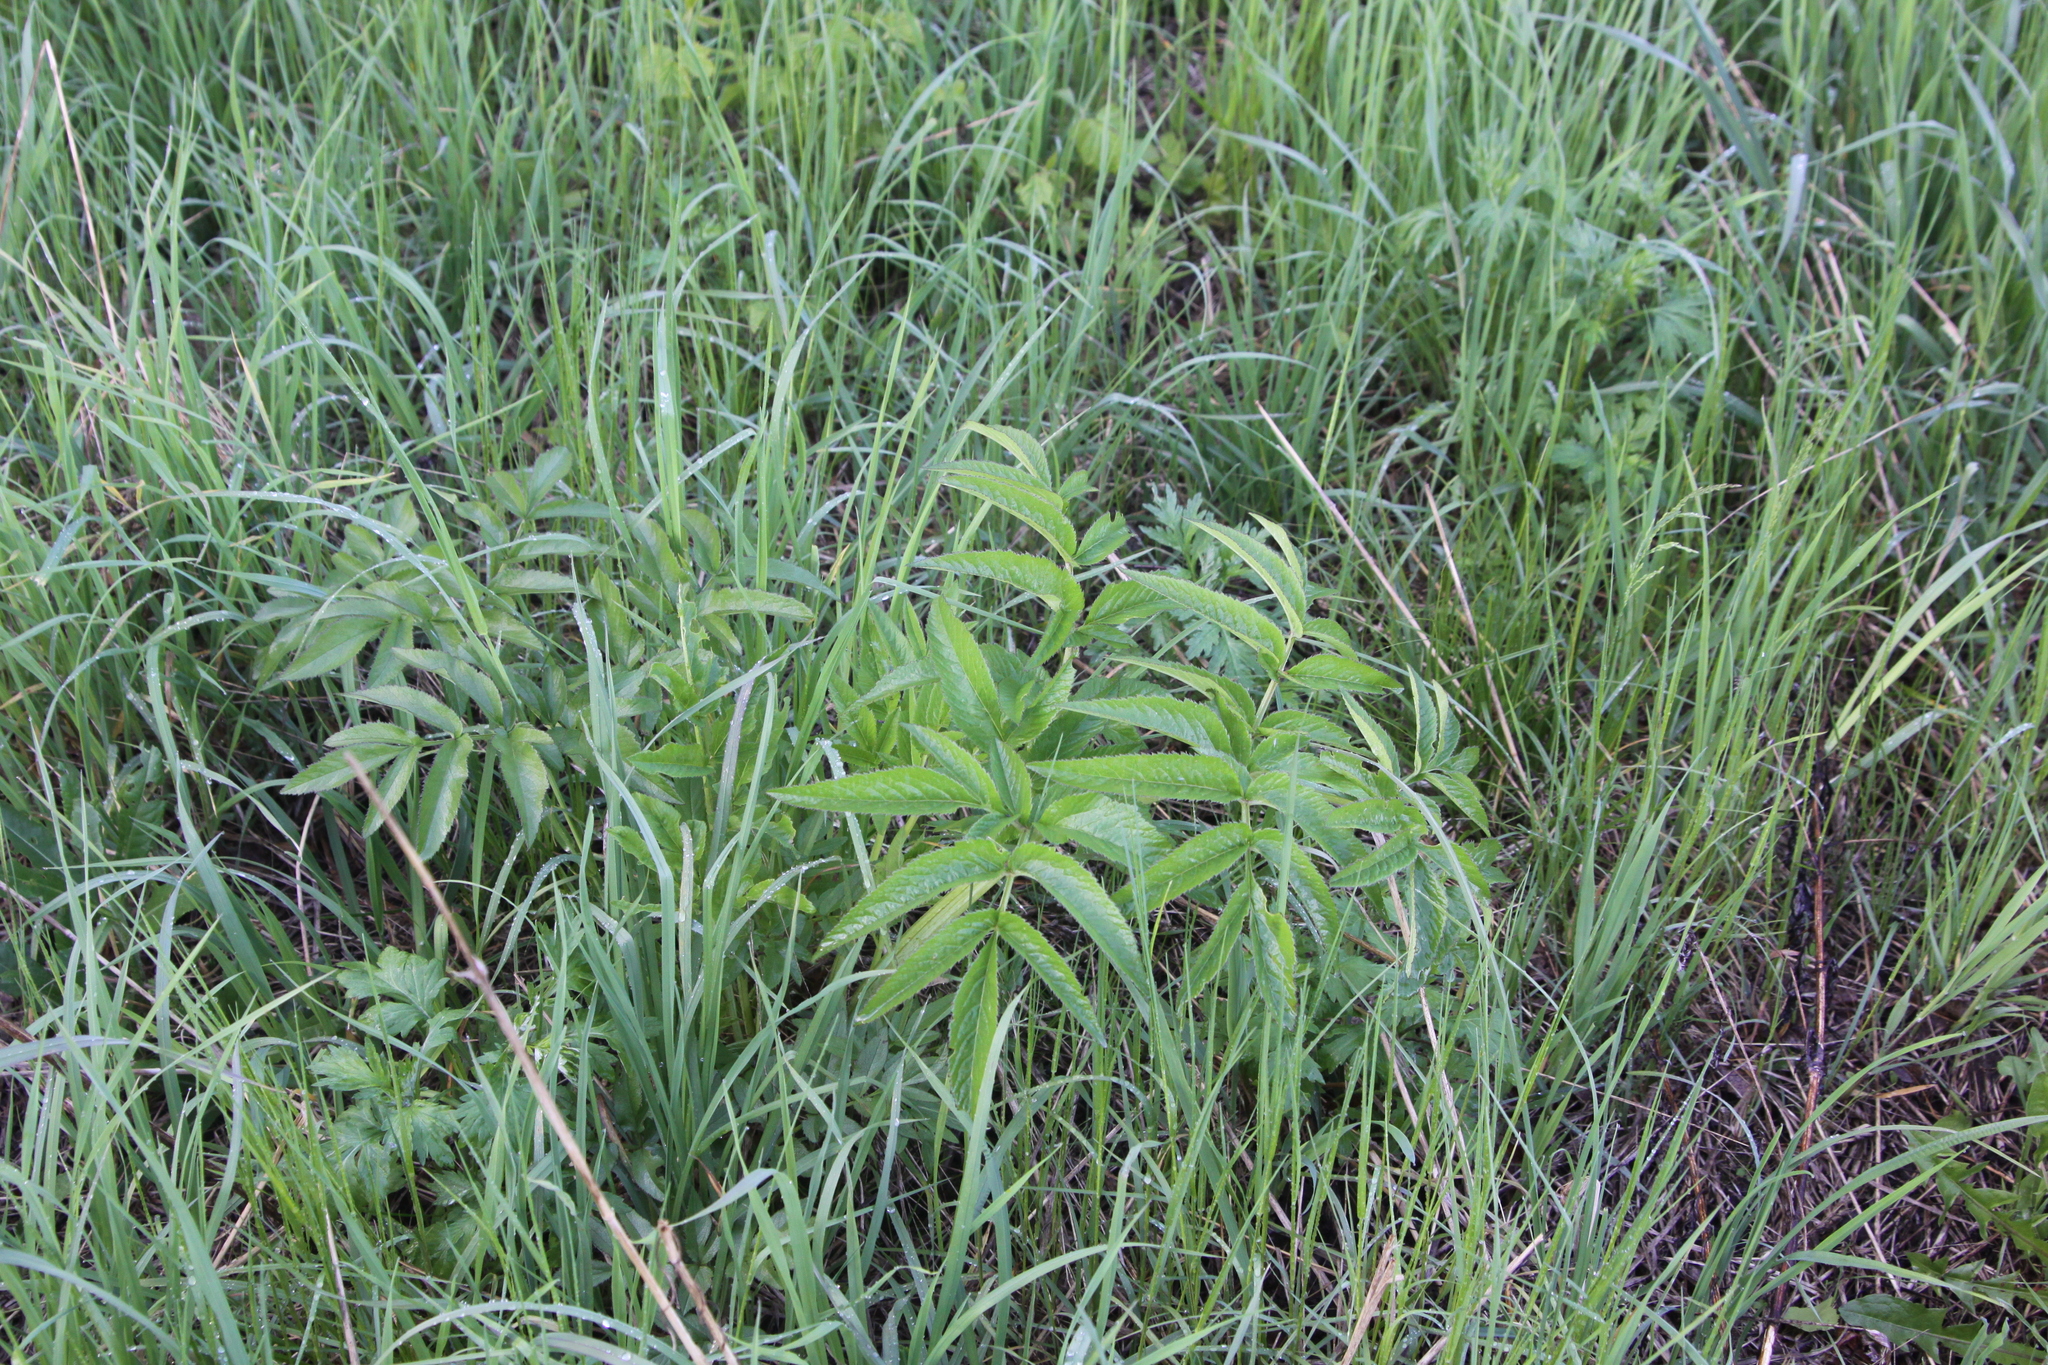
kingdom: Plantae
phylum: Tracheophyta
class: Magnoliopsida
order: Apiales
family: Apiaceae
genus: Angelica
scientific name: Angelica sylvestris
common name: Wild angelica
